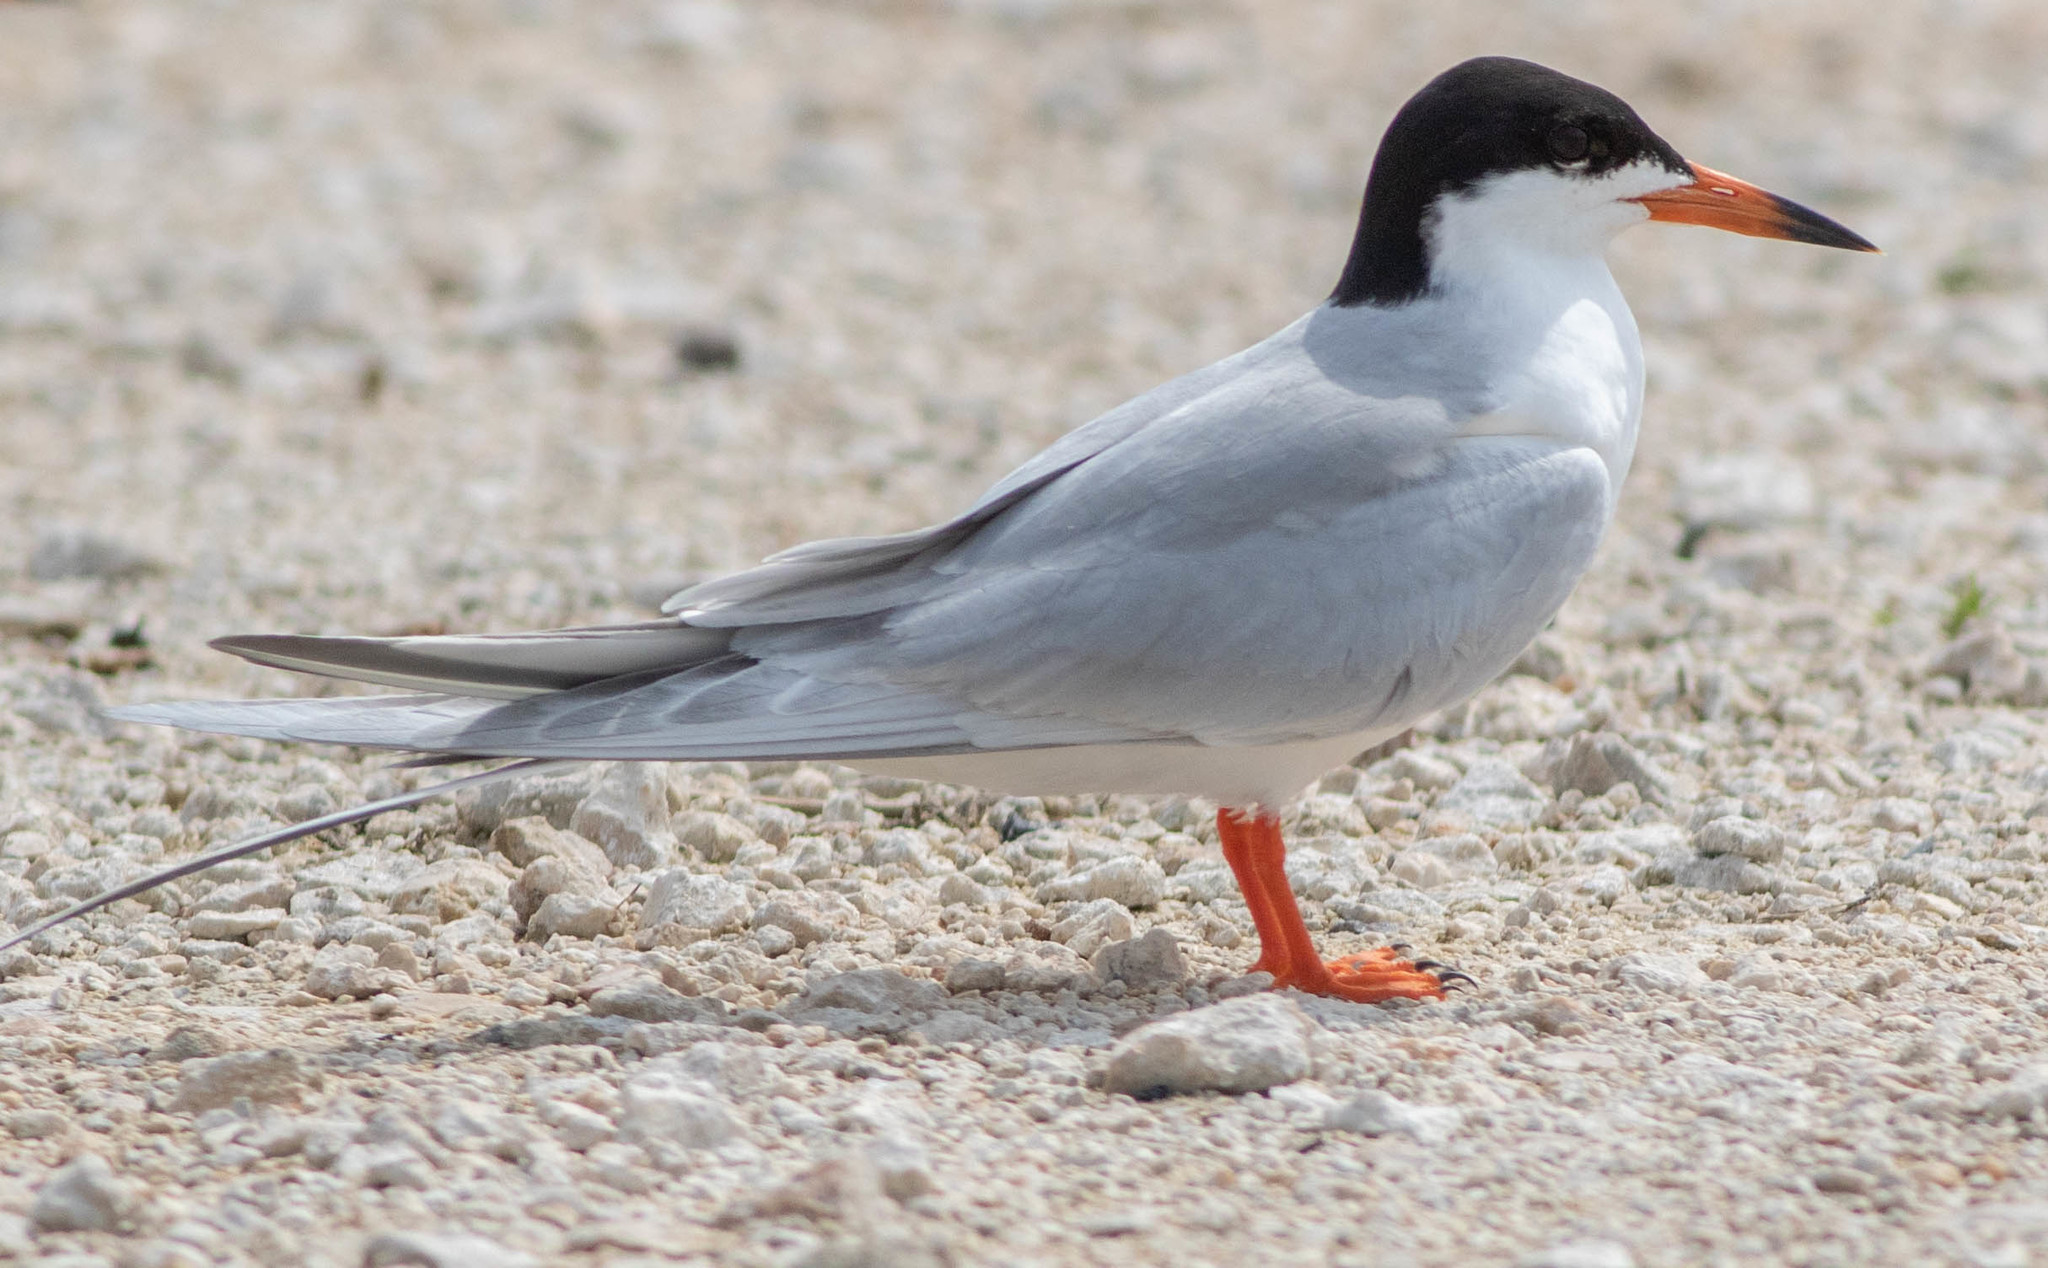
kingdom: Animalia
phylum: Chordata
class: Aves
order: Charadriiformes
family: Laridae
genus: Sterna
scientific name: Sterna forsteri
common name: Forster's tern
